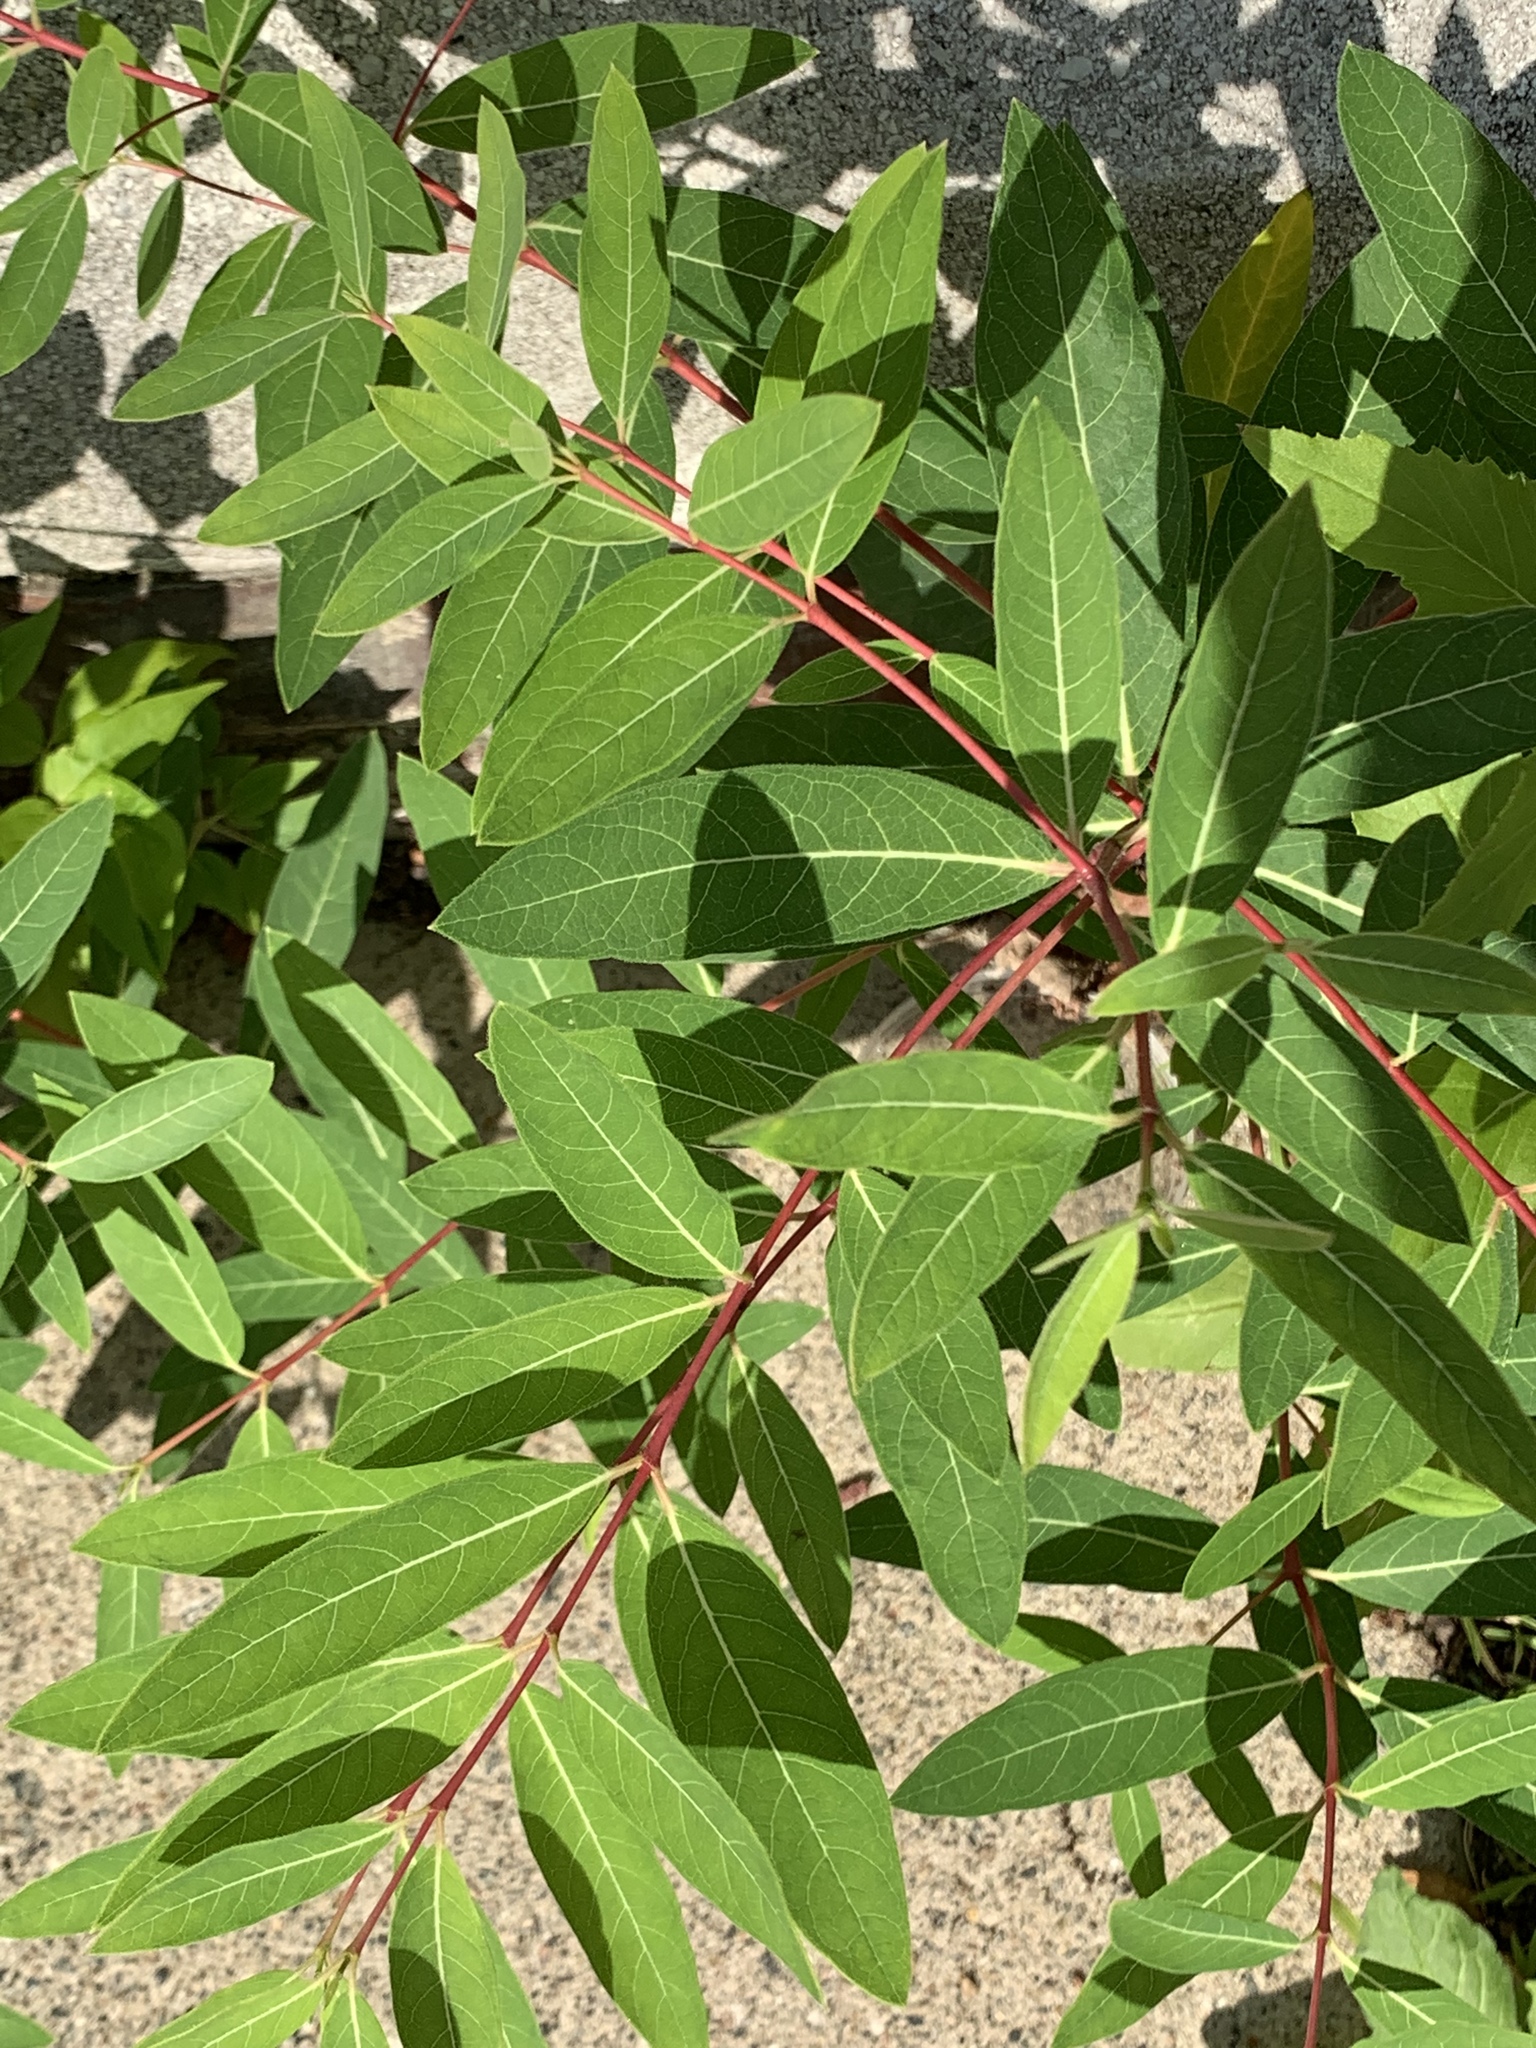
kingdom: Plantae
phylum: Tracheophyta
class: Magnoliopsida
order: Gentianales
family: Apocynaceae
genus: Apocynum
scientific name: Apocynum cannabinum
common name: Hemp dogbane
